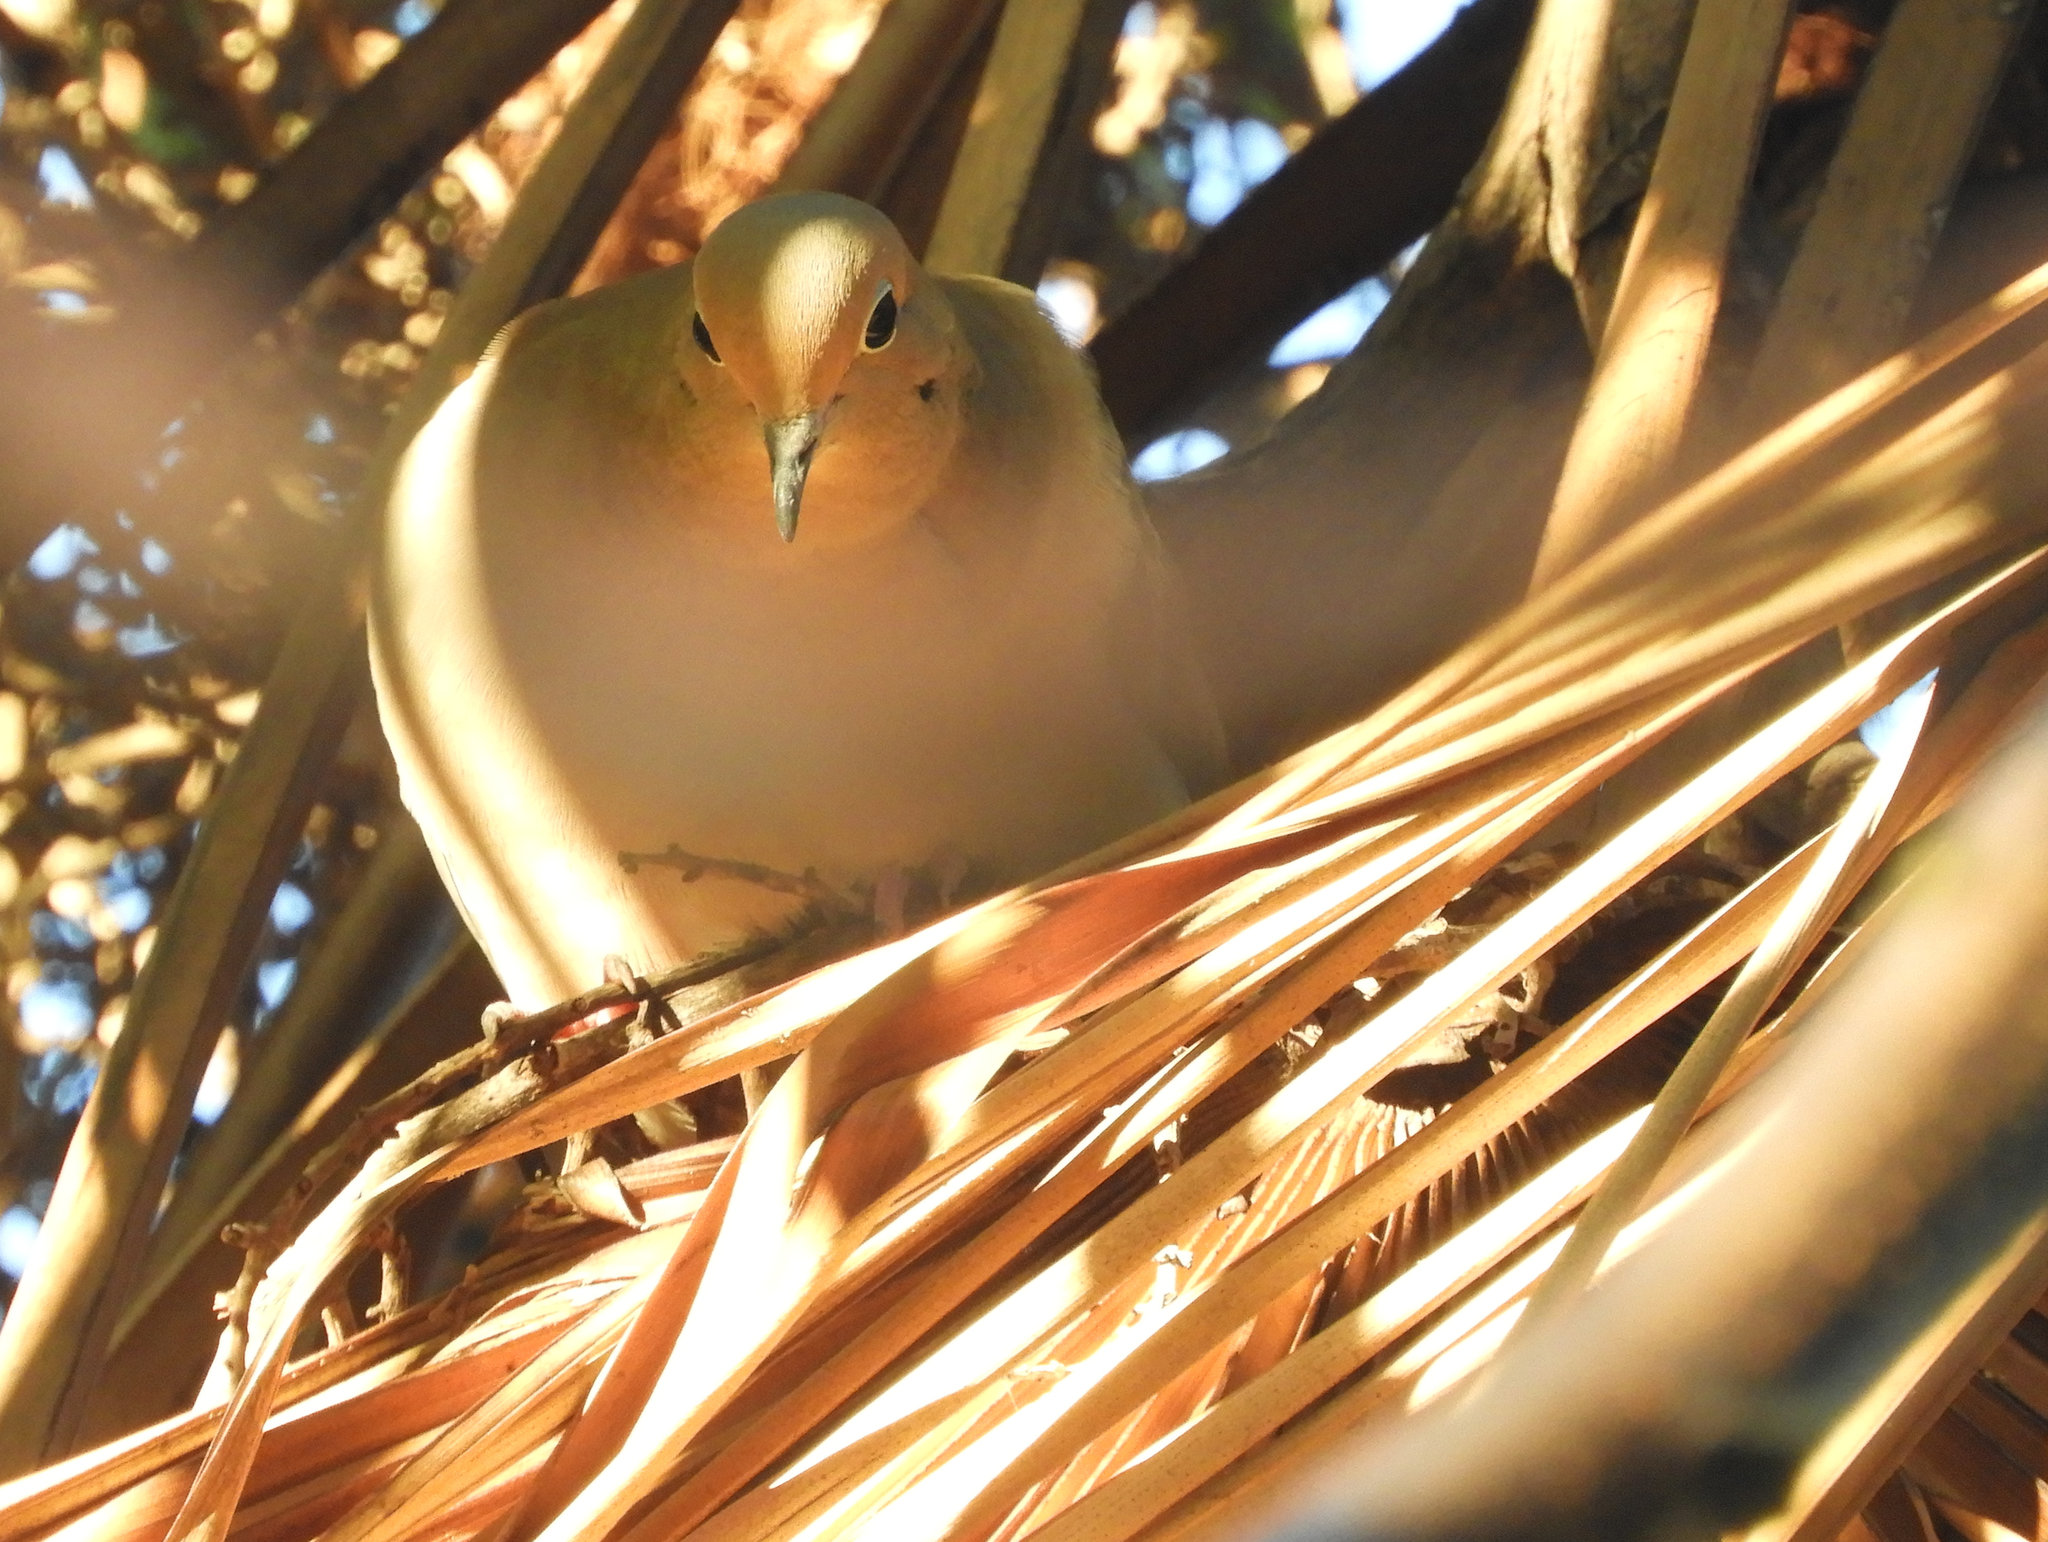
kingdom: Animalia
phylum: Chordata
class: Aves
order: Columbiformes
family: Columbidae
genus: Zenaida
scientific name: Zenaida macroura
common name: Mourning dove
